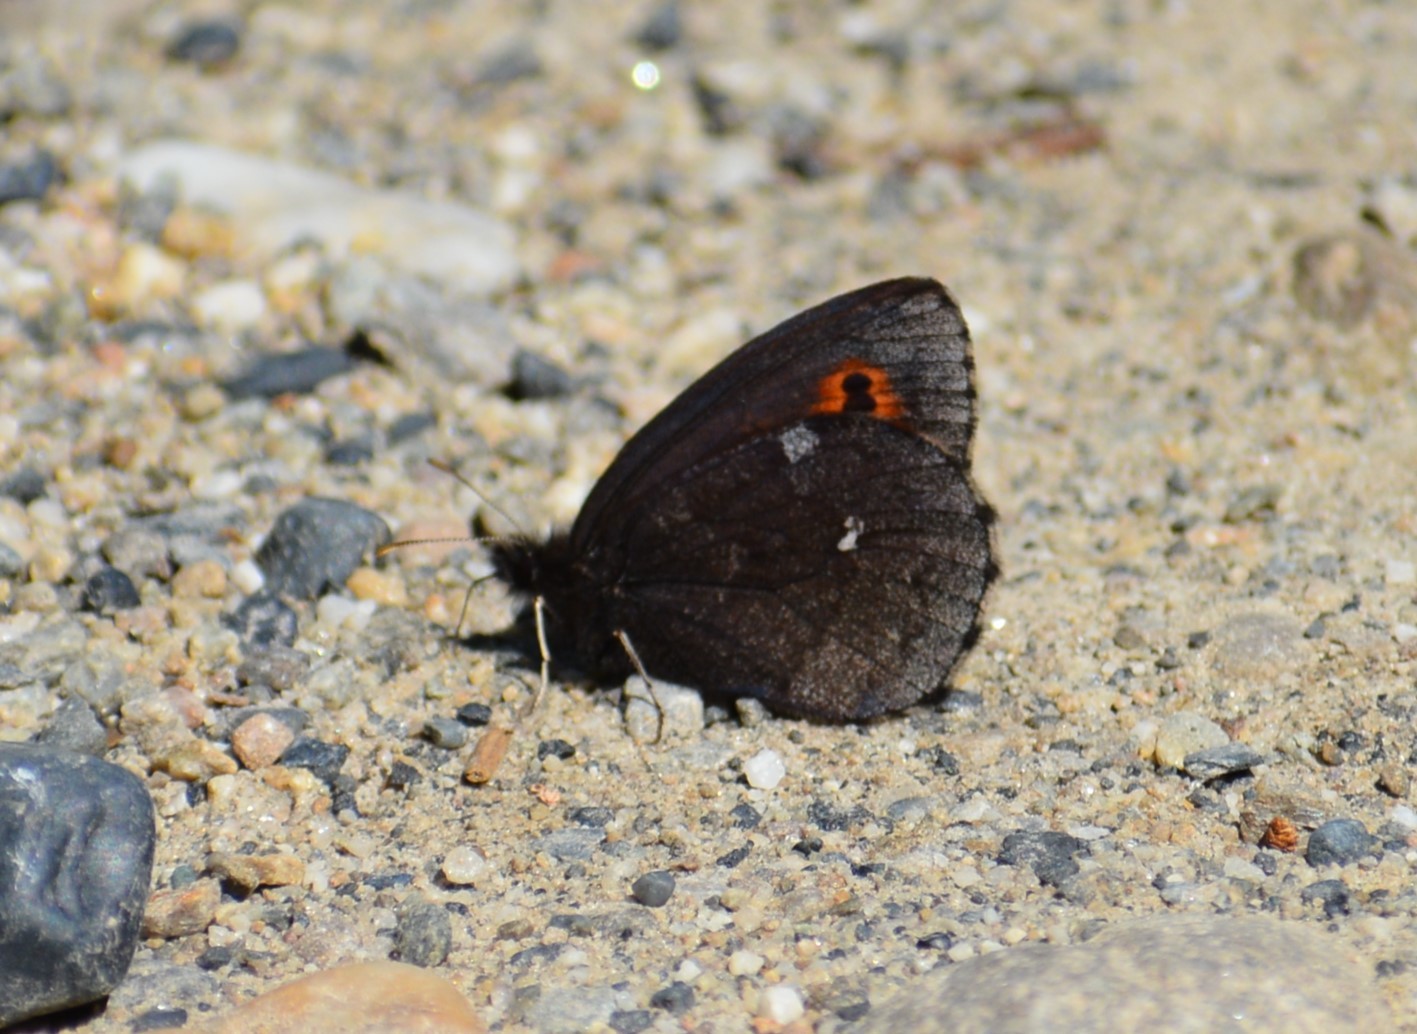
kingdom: Animalia
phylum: Arthropoda
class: Insecta
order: Lepidoptera
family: Nymphalidae
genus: Erebia
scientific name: Erebia disa
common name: Arctic ringlet
